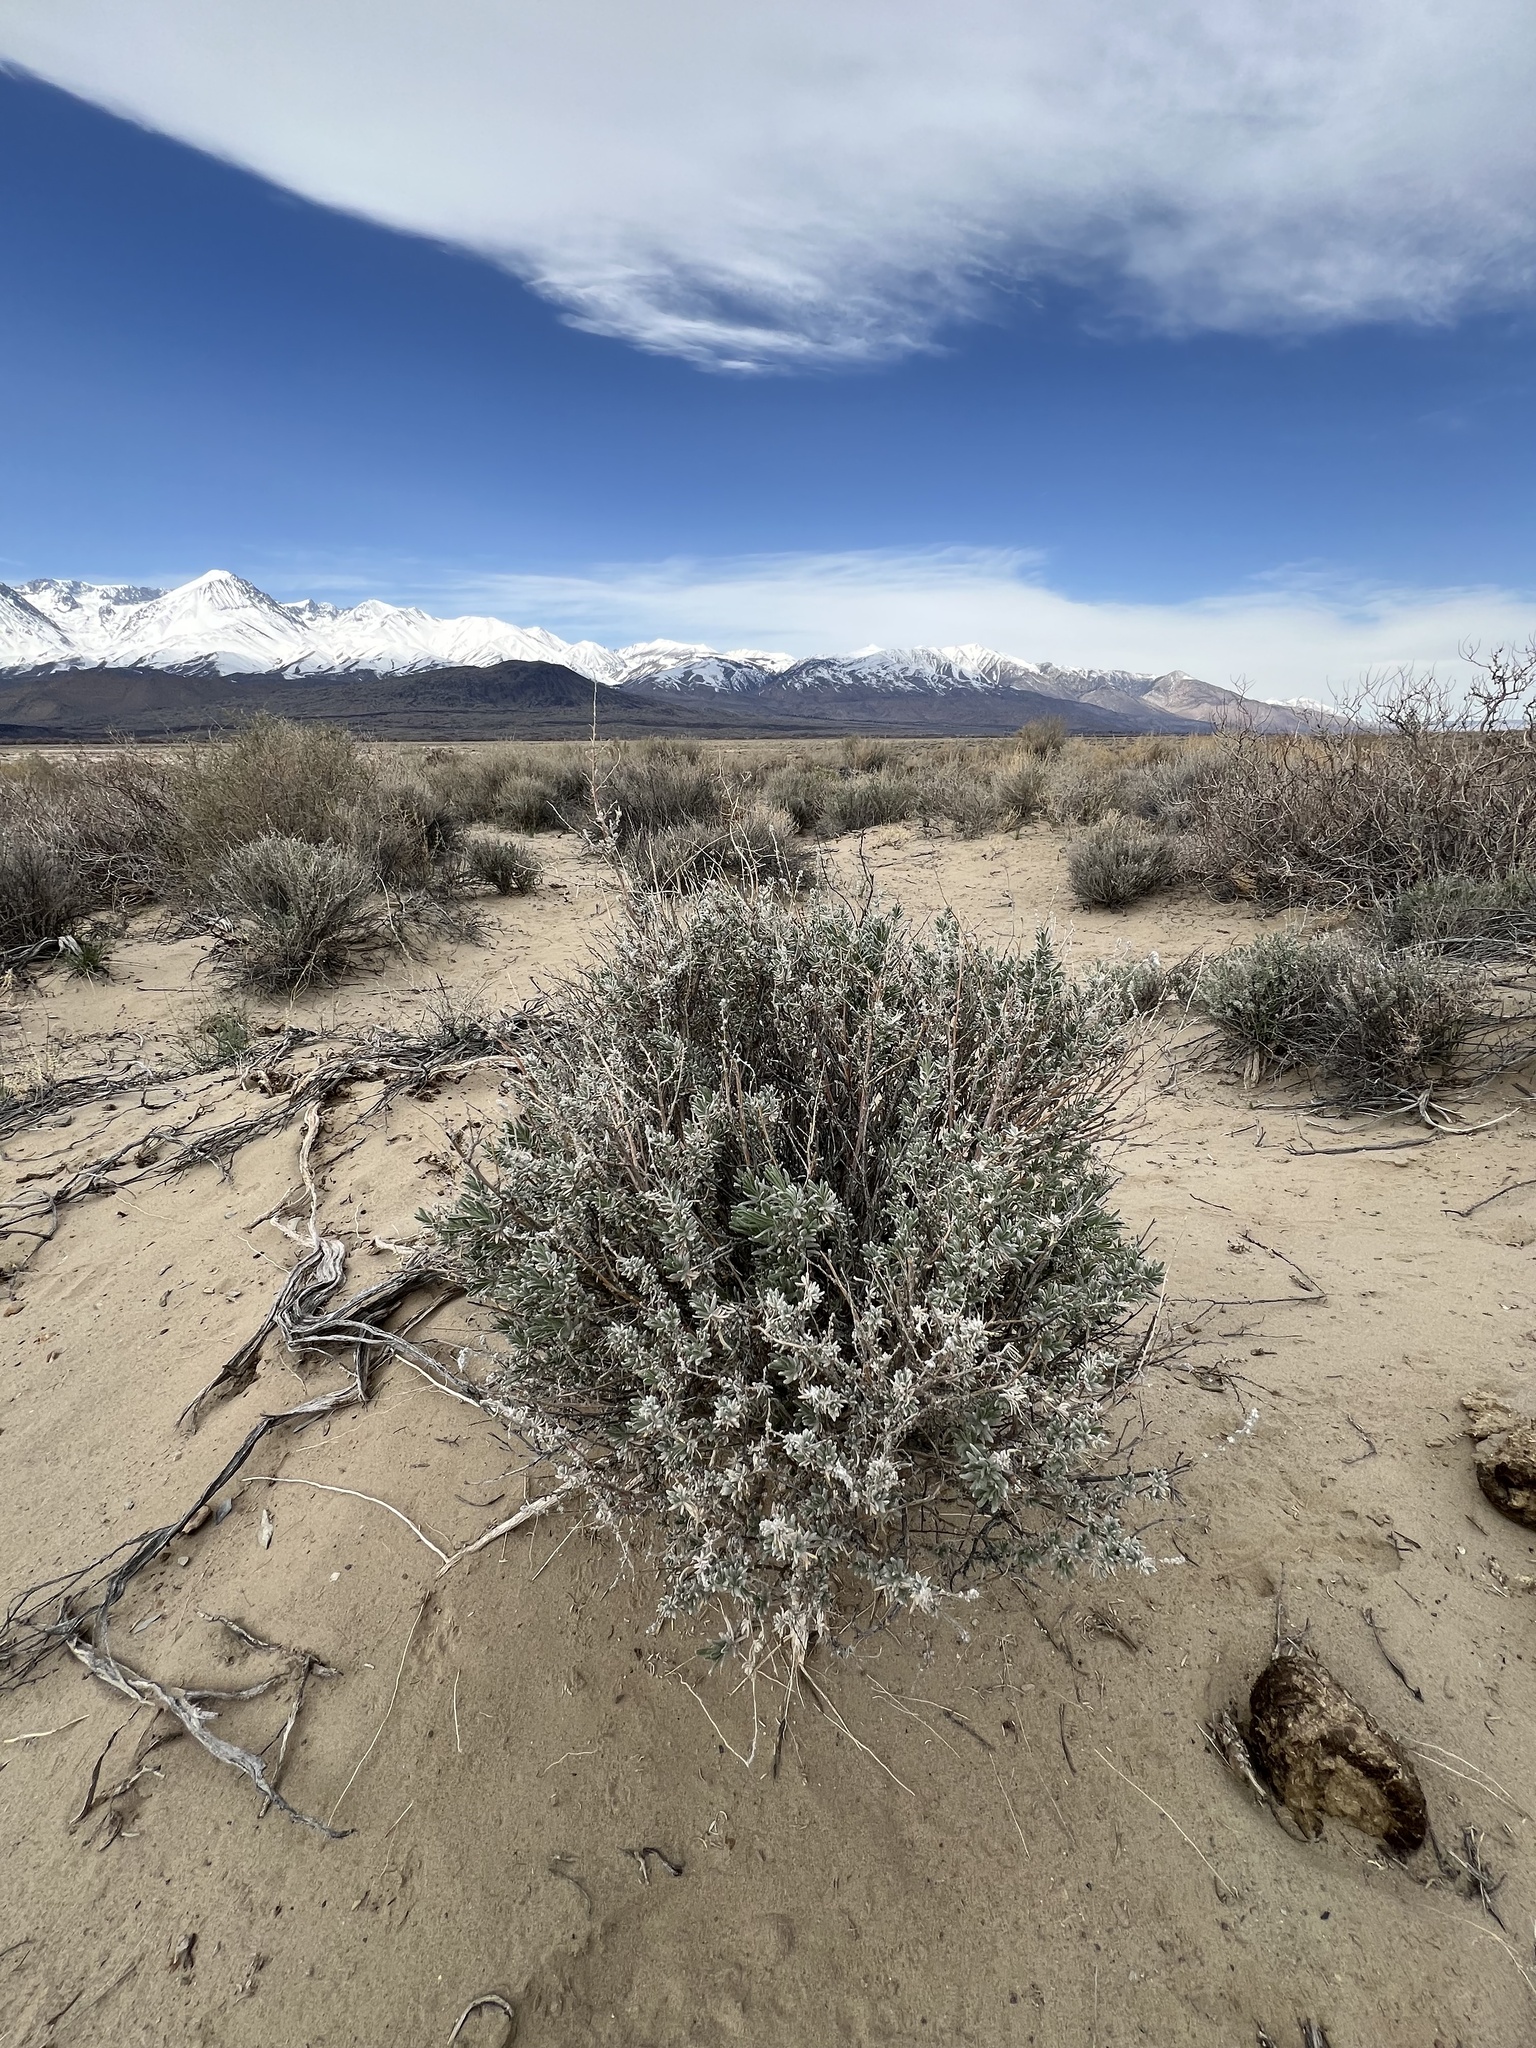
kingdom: Plantae
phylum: Tracheophyta
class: Magnoliopsida
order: Caryophyllales
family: Amaranthaceae
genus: Krascheninnikovia
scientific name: Krascheninnikovia lanata
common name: Winterfat
